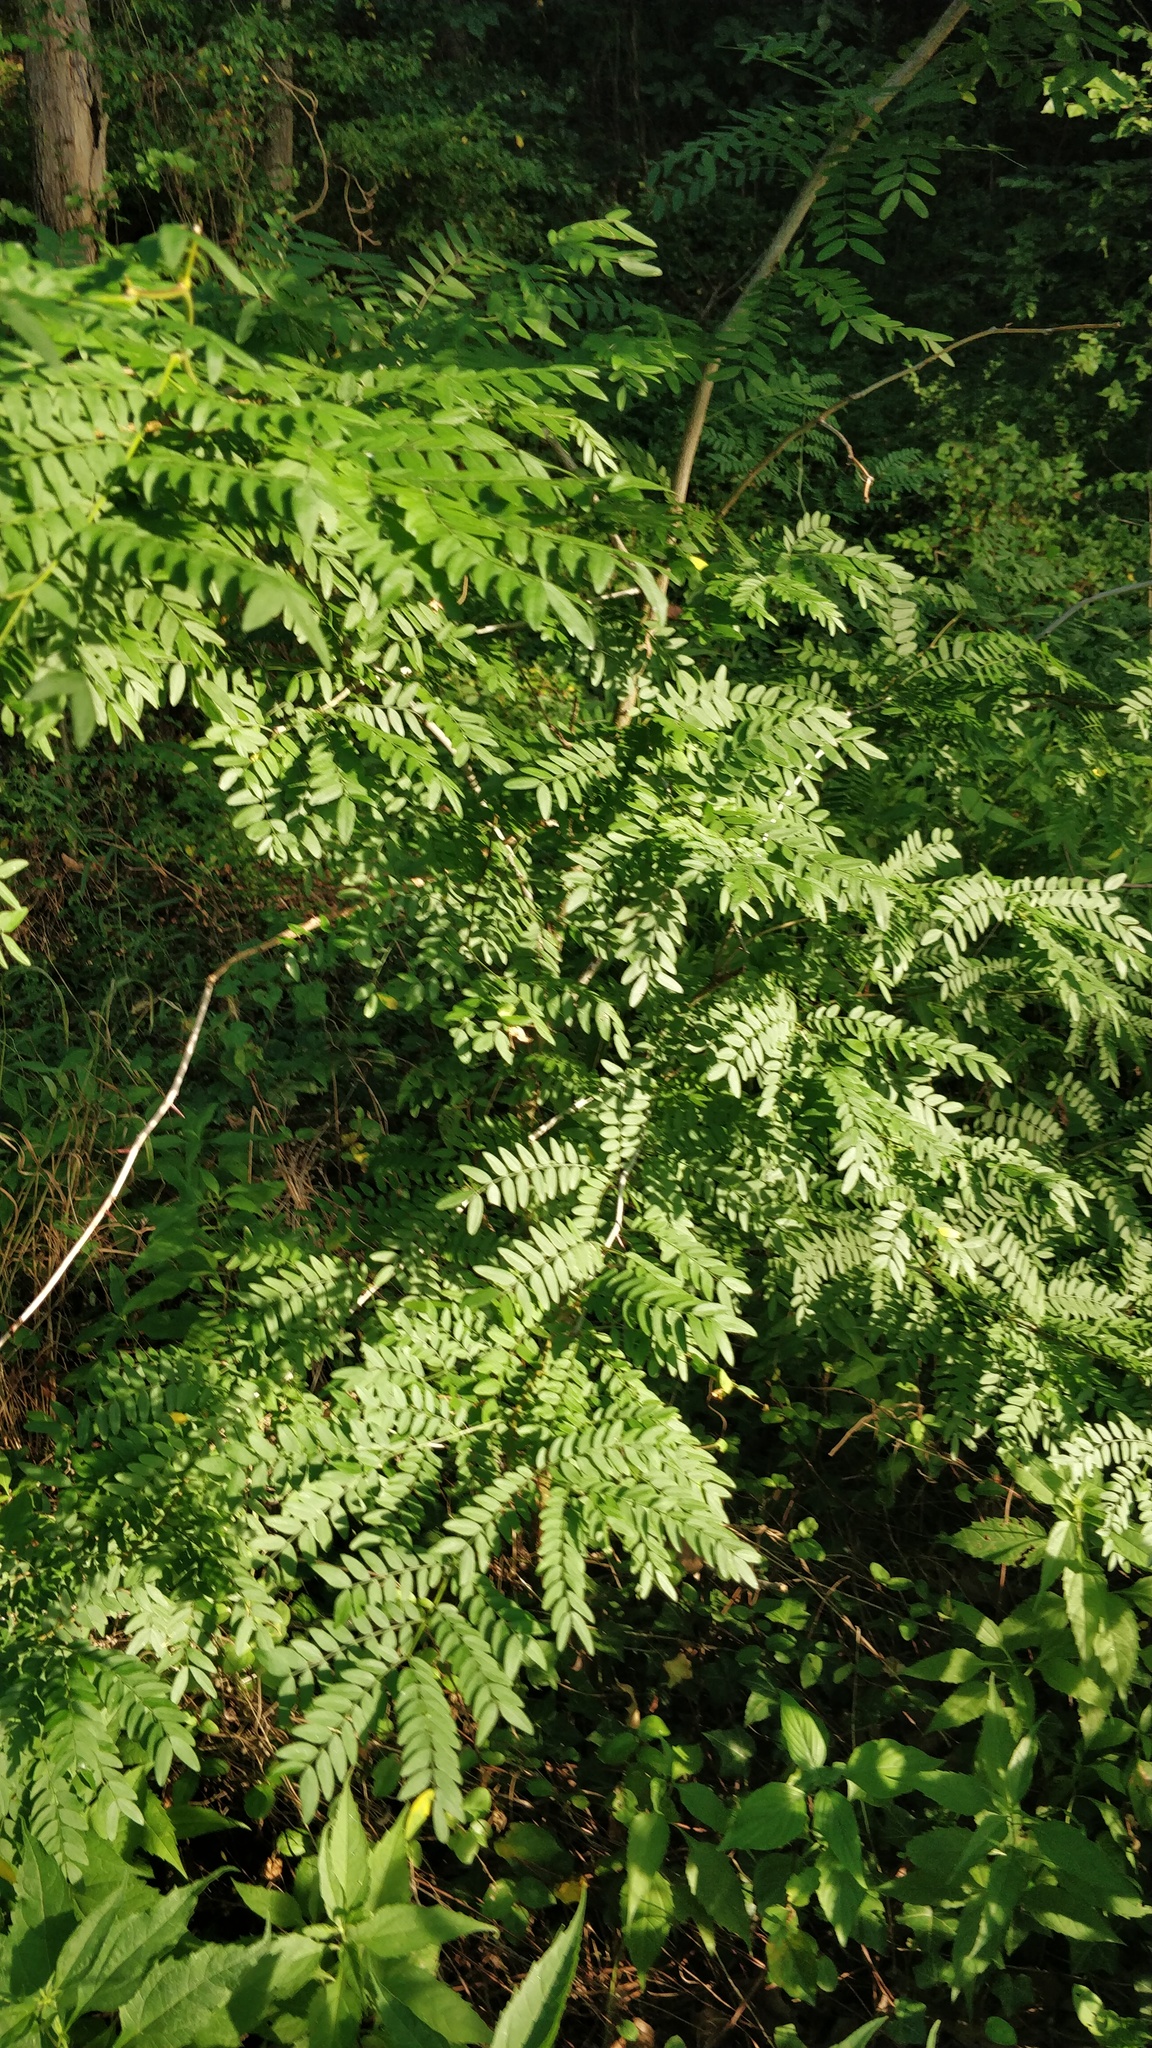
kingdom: Plantae
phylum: Tracheophyta
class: Magnoliopsida
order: Fabales
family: Fabaceae
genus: Gleditsia
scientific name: Gleditsia triacanthos
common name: Common honeylocust
